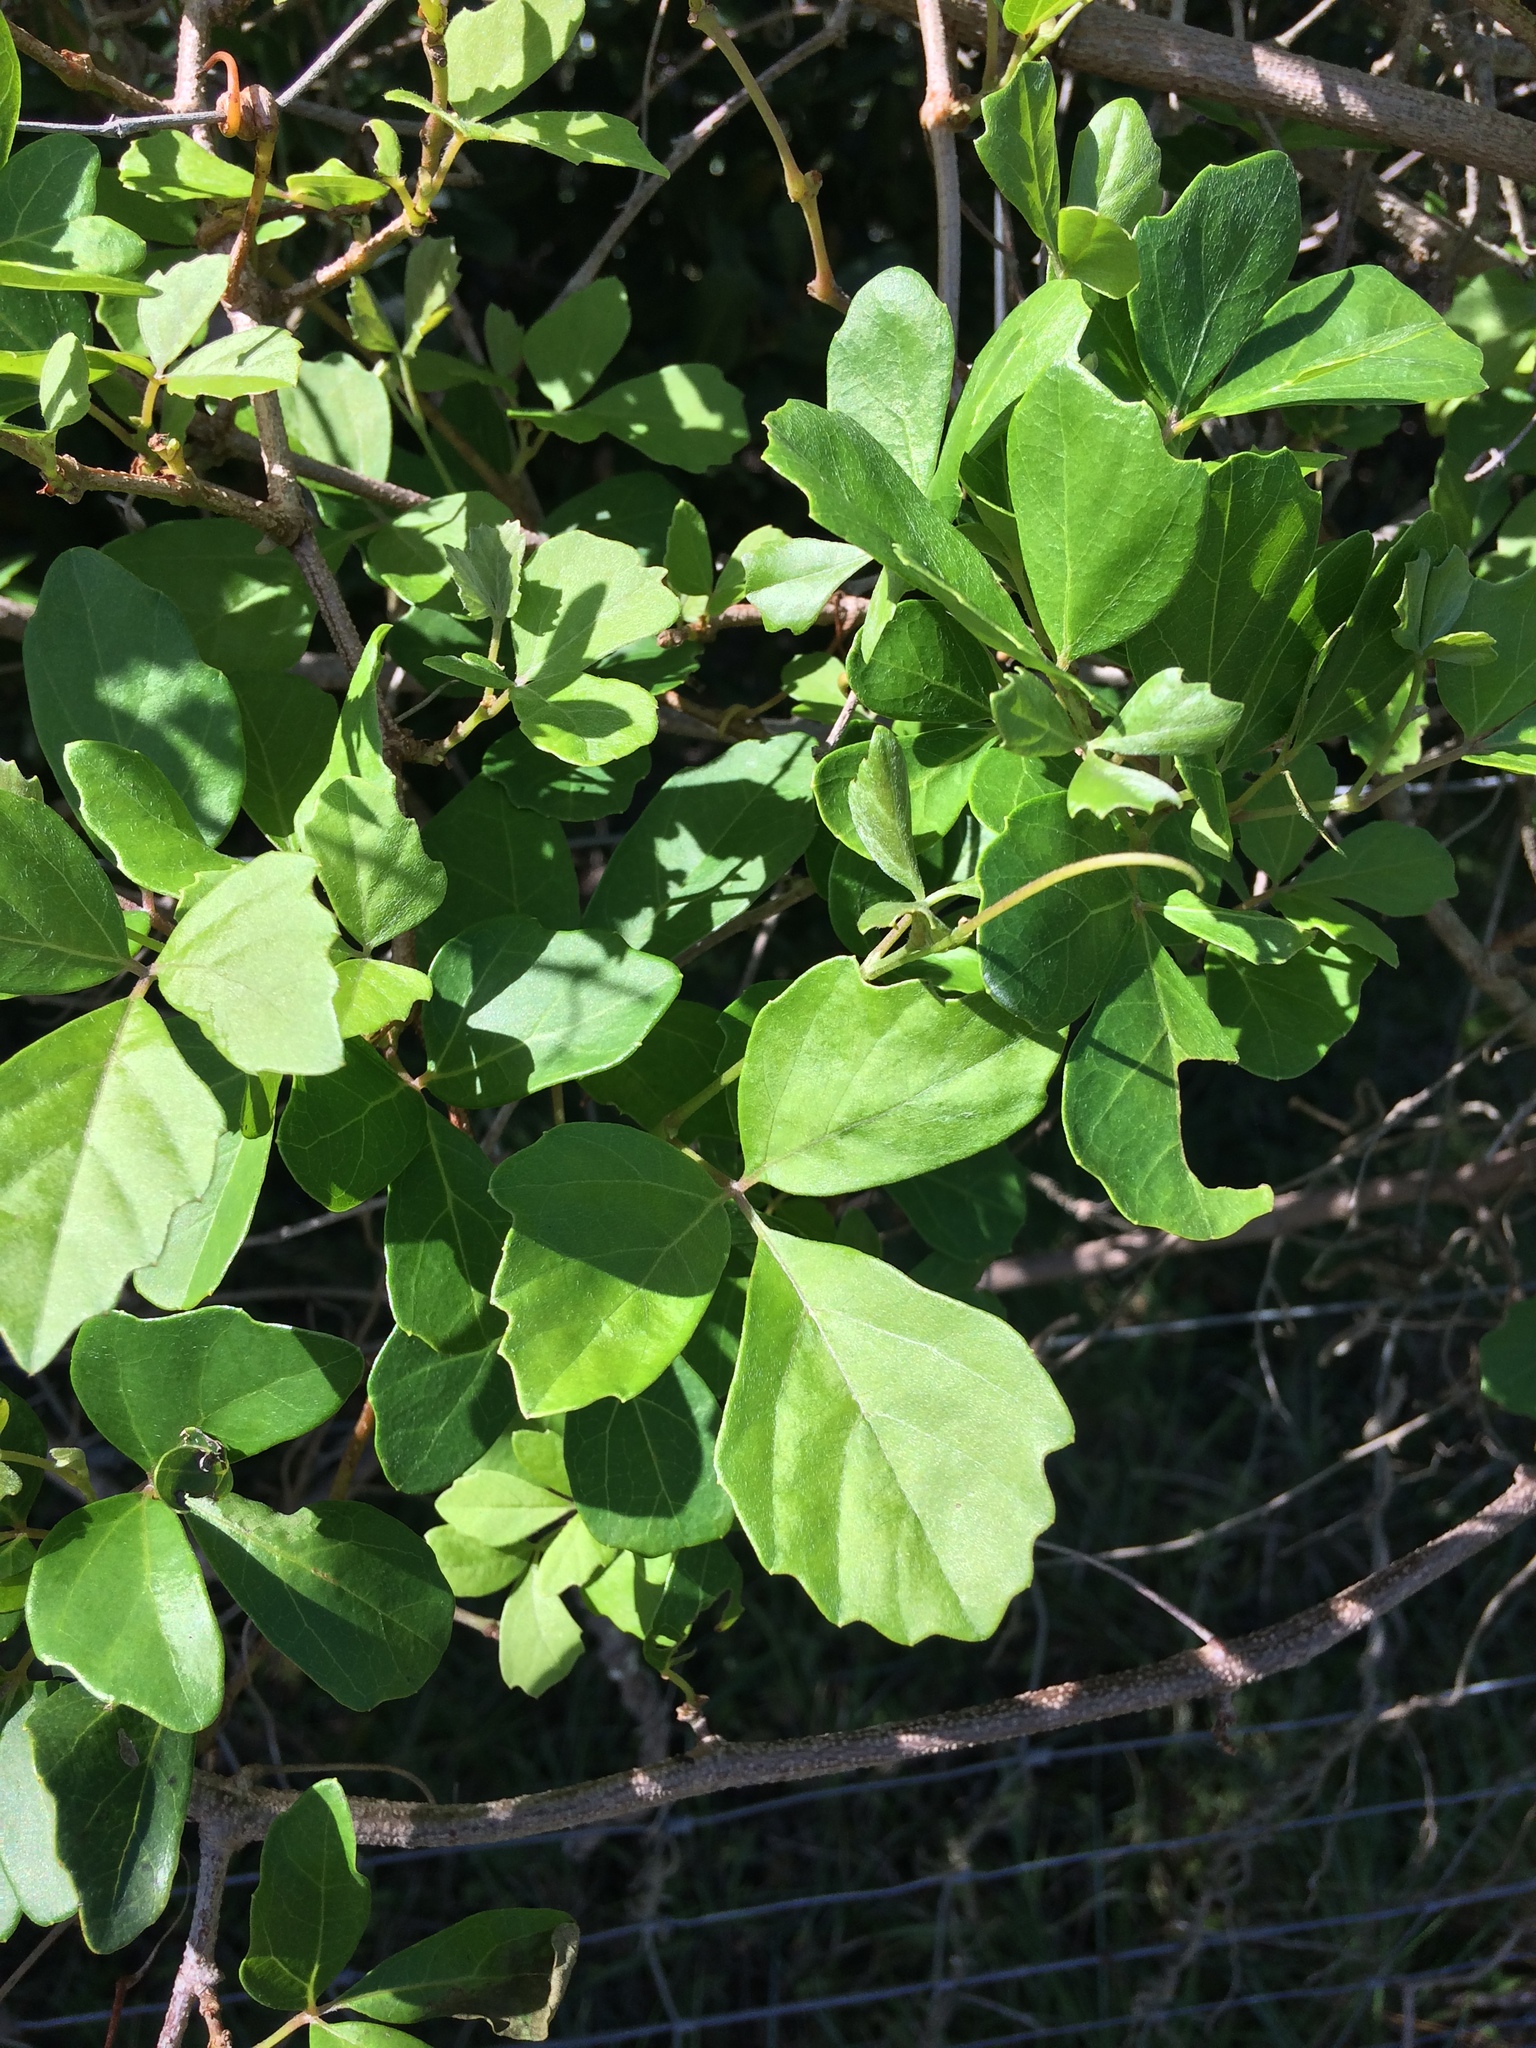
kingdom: Plantae
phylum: Tracheophyta
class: Magnoliopsida
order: Vitales
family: Vitaceae
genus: Rhoicissus
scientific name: Rhoicissus tridentata
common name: Common forest grape
